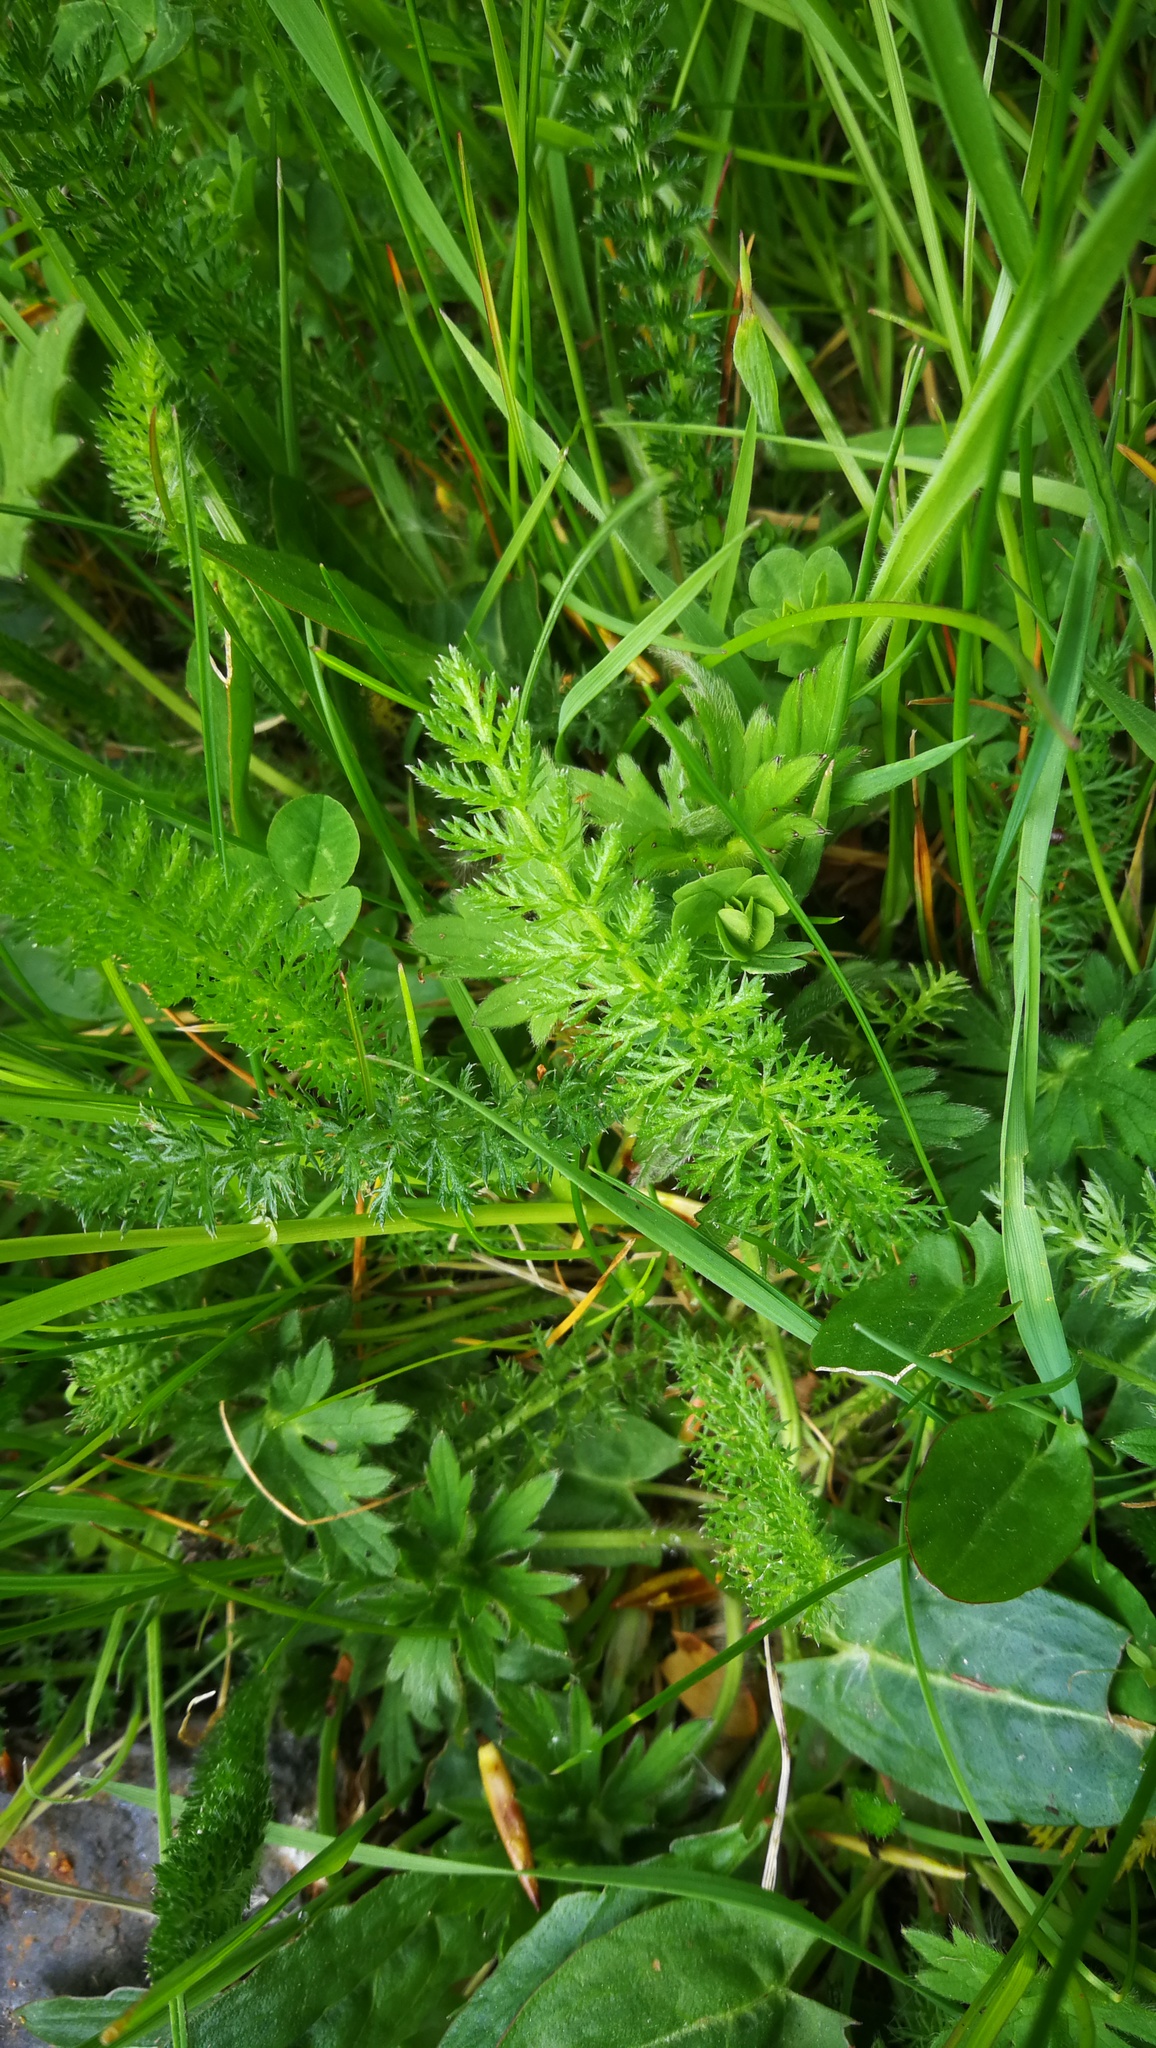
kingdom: Plantae
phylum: Tracheophyta
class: Magnoliopsida
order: Asterales
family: Asteraceae
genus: Achillea
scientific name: Achillea millefolium
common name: Yarrow
